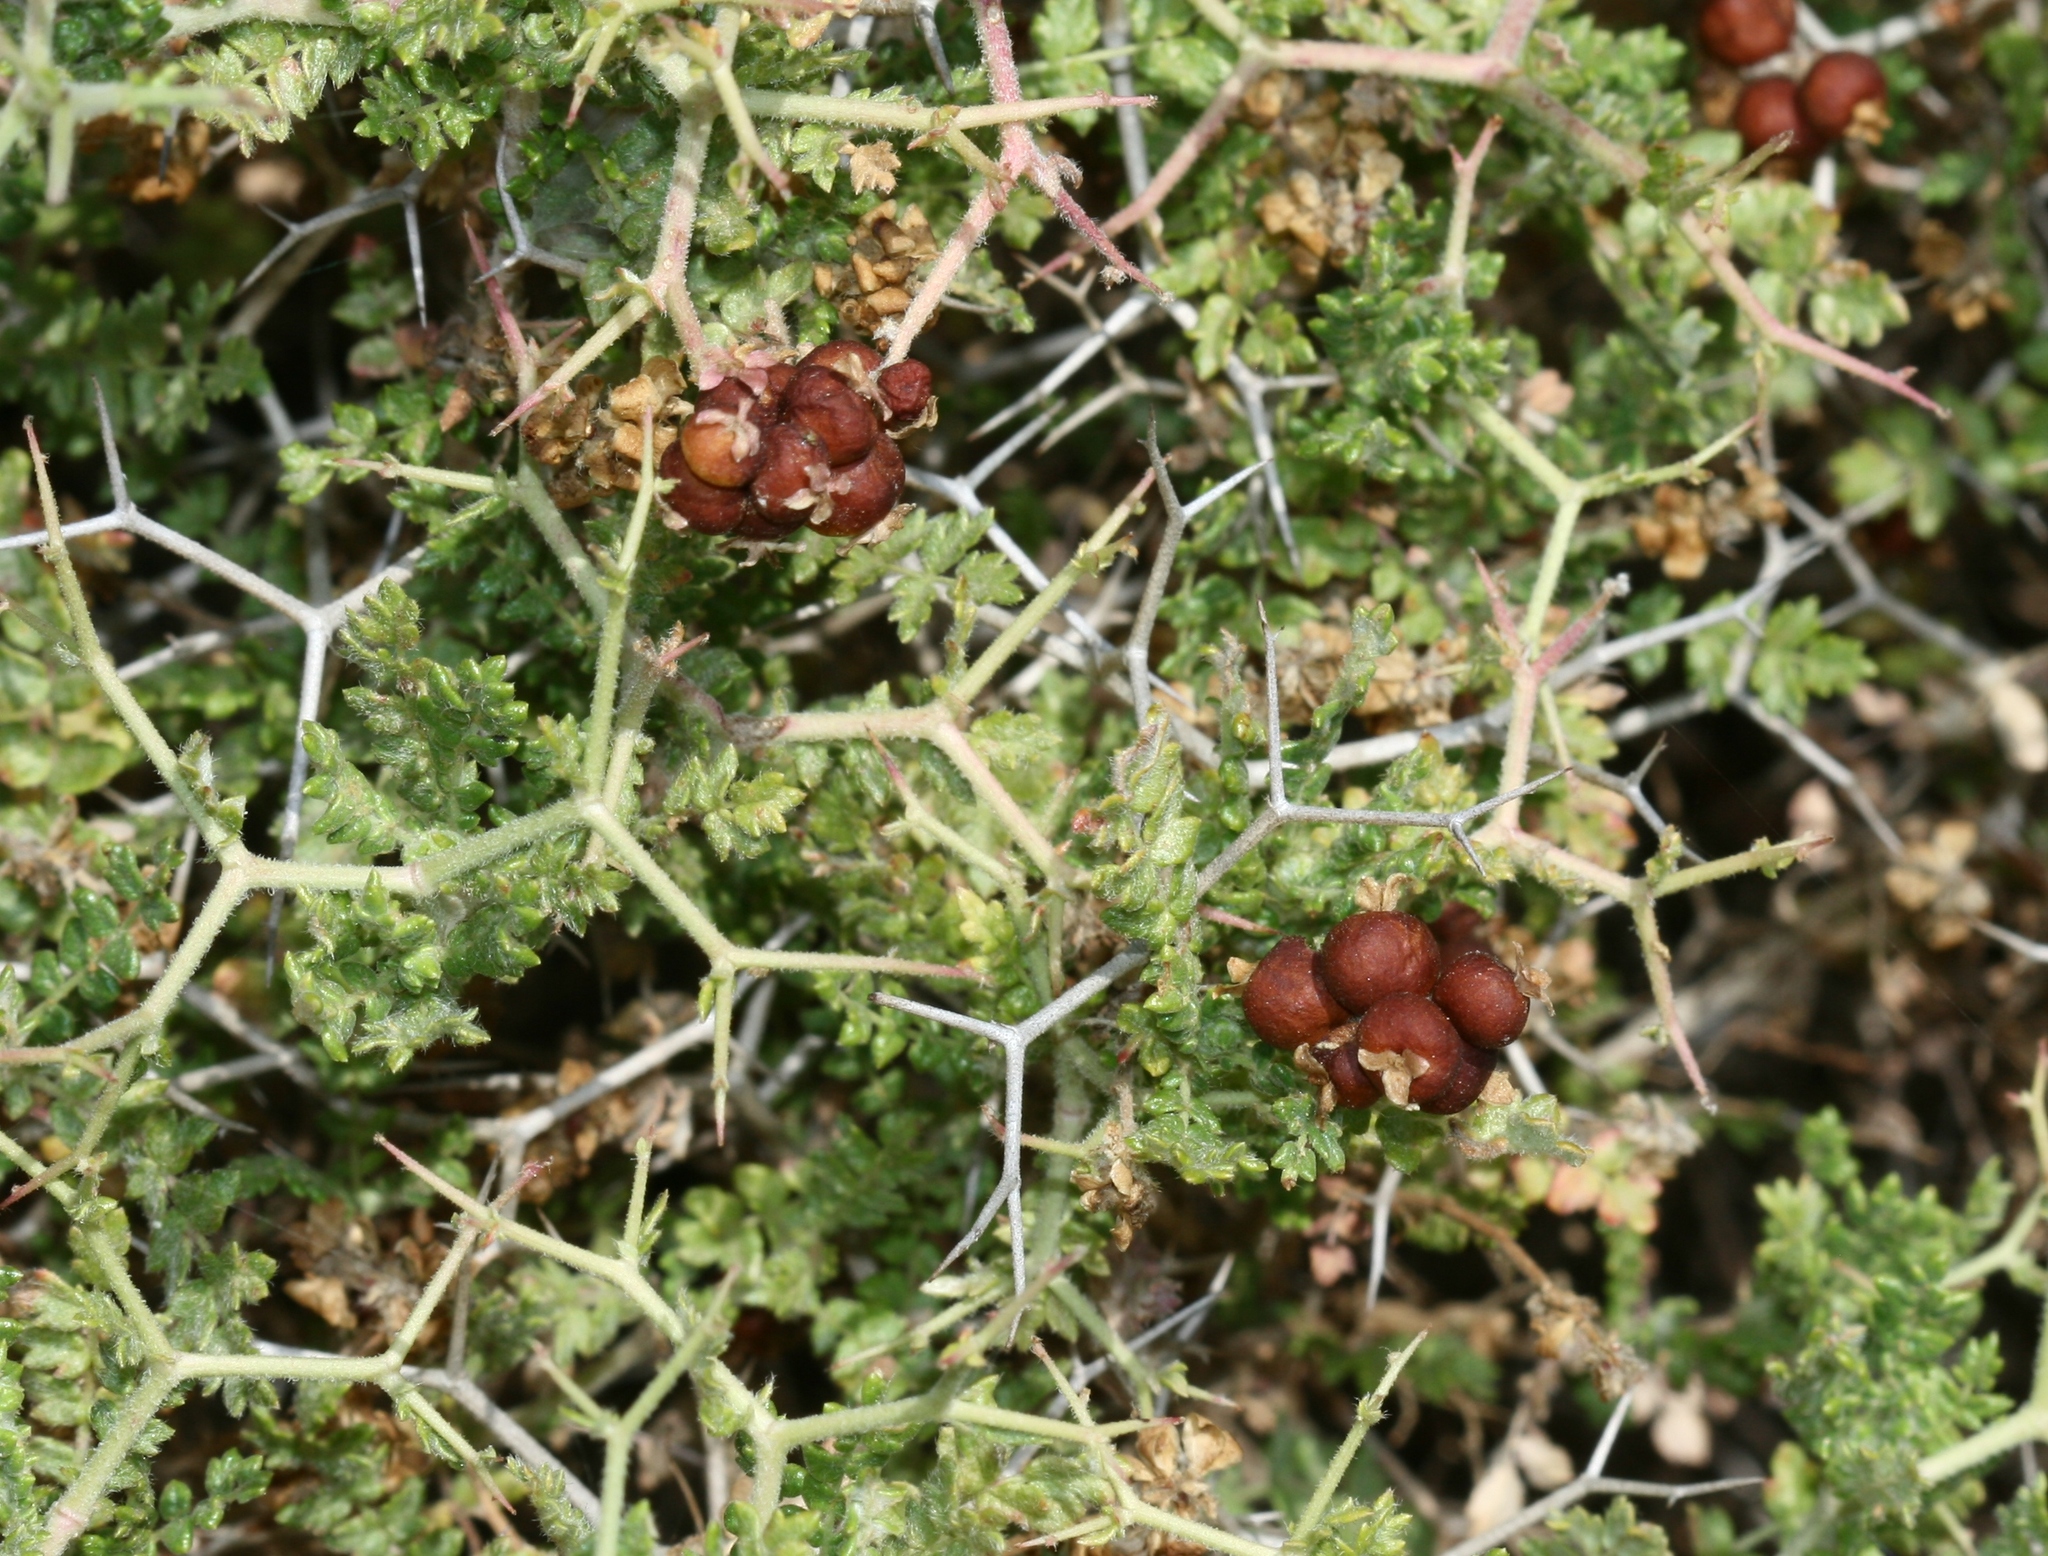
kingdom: Plantae
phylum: Tracheophyta
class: Magnoliopsida
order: Rosales
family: Rosaceae
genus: Sarcopoterium
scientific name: Sarcopoterium spinosum
